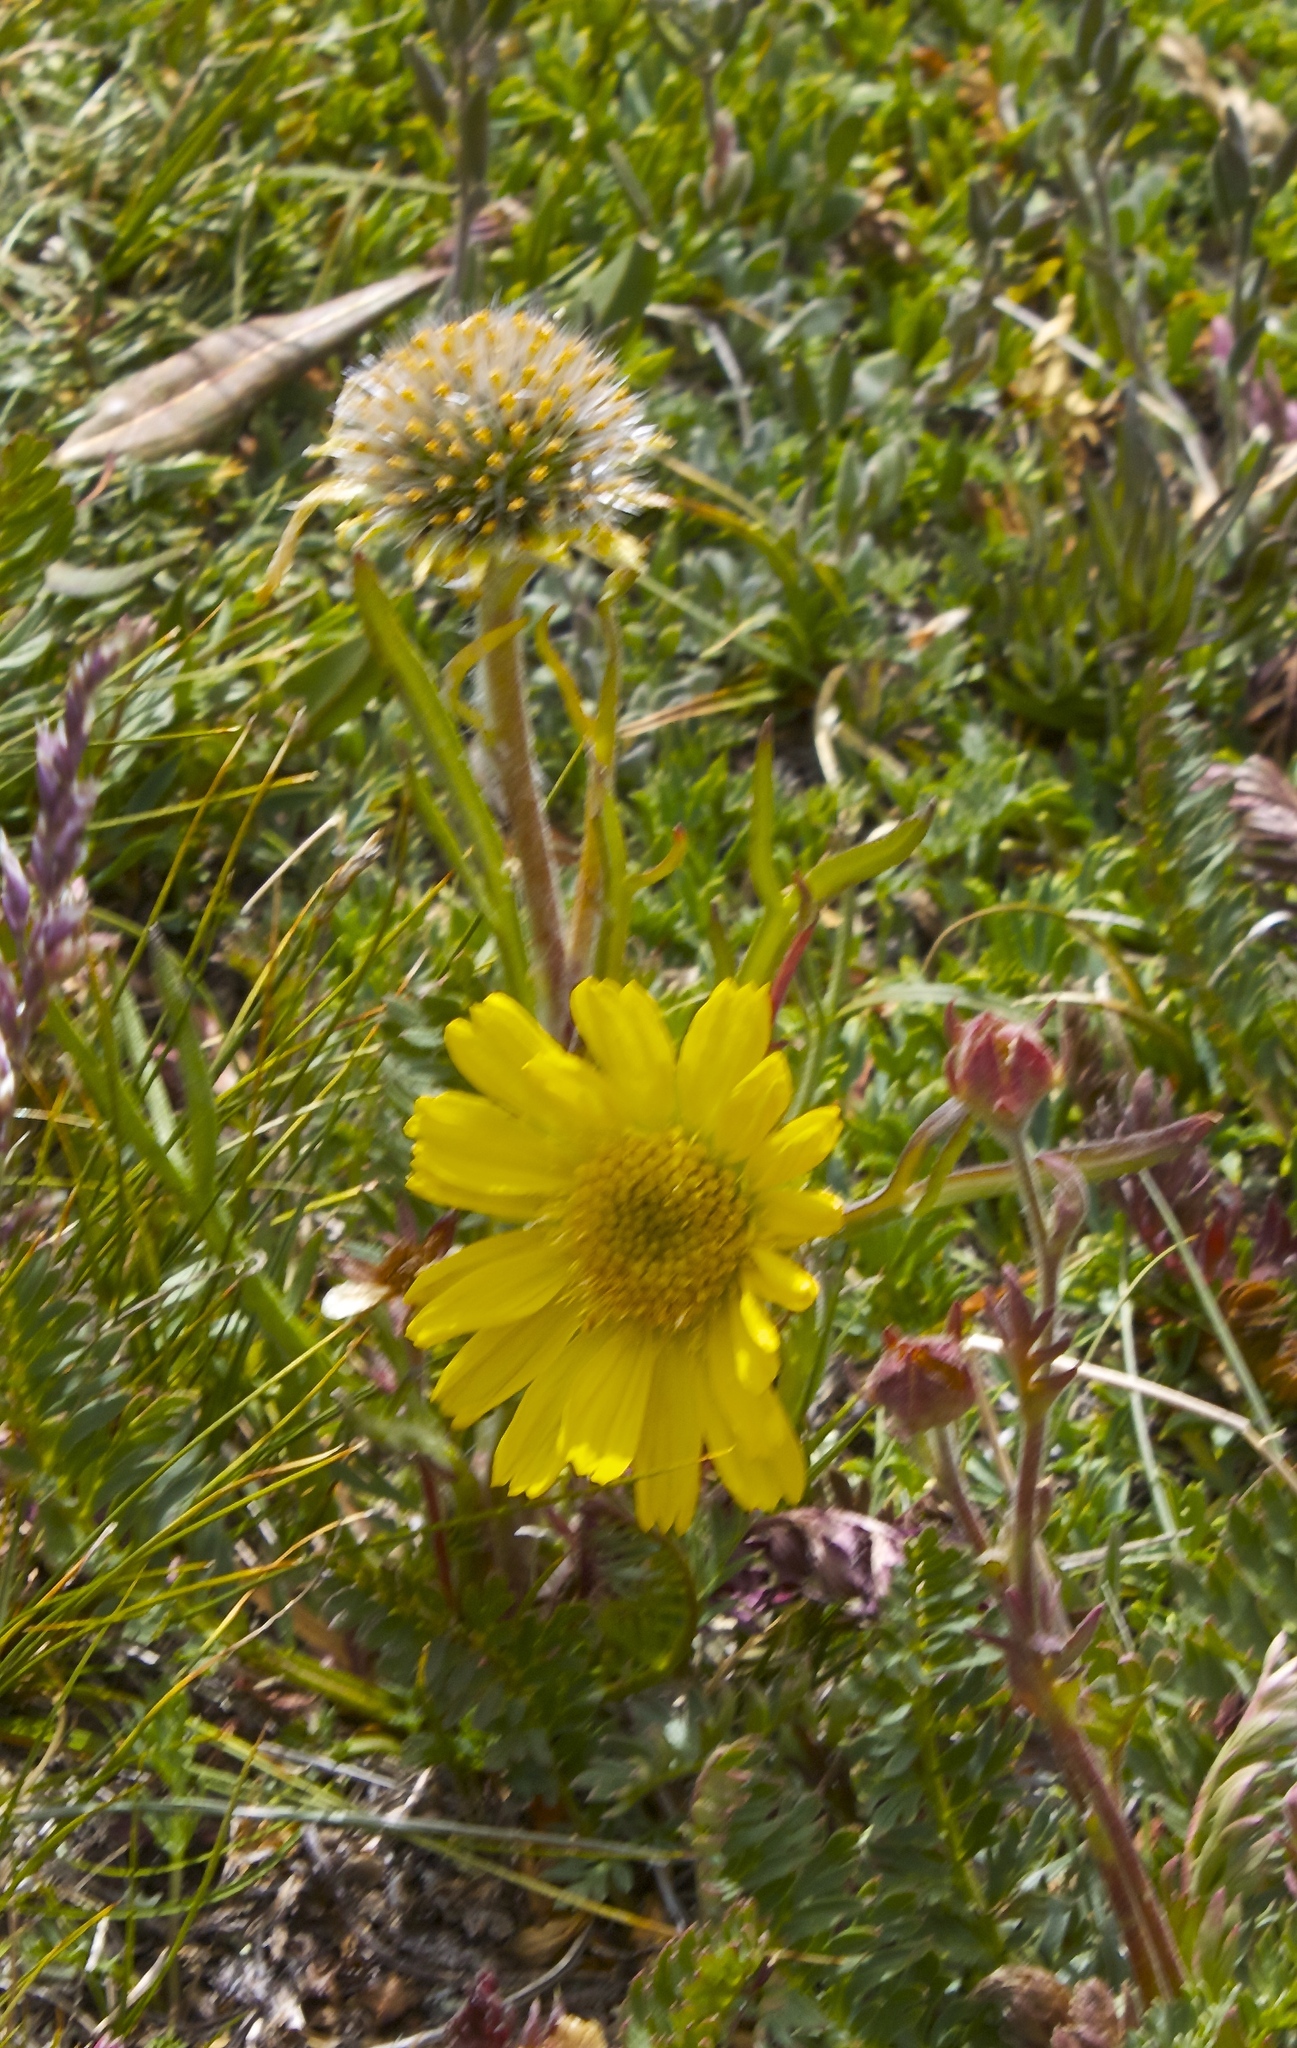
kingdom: Plantae
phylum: Tracheophyta
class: Magnoliopsida
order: Asterales
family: Asteraceae
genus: Hymenoxys
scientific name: Hymenoxys grandiflora
